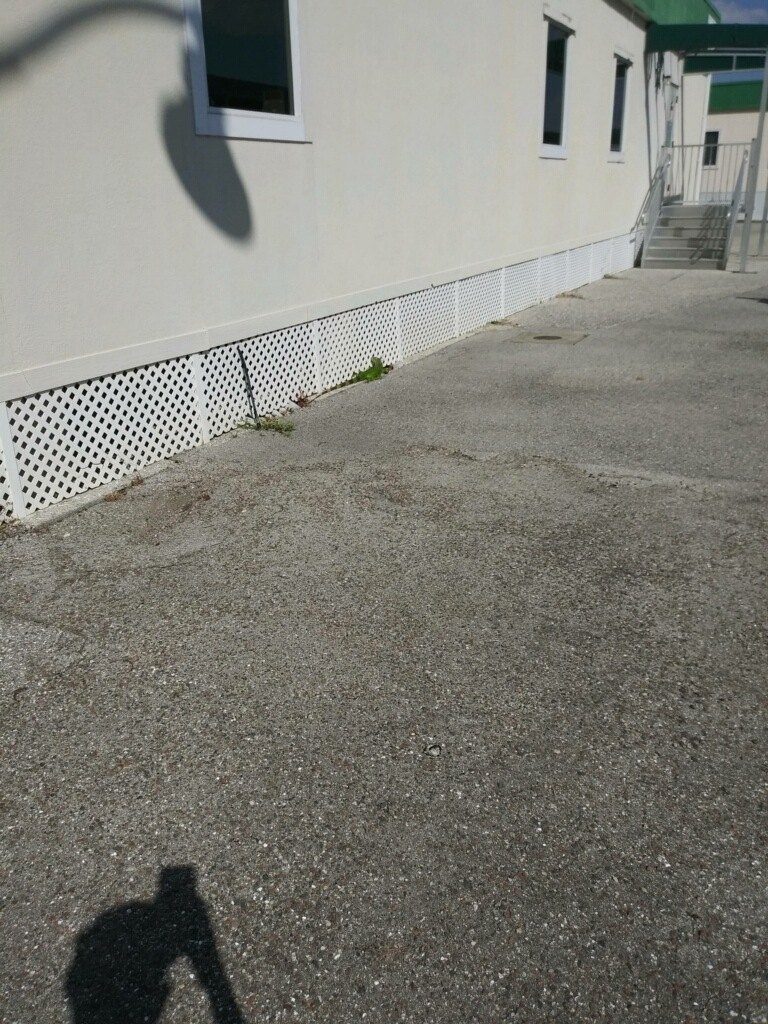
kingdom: Animalia
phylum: Chordata
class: Squamata
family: Iguanidae
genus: Iguana
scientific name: Iguana iguana
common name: Green iguana
